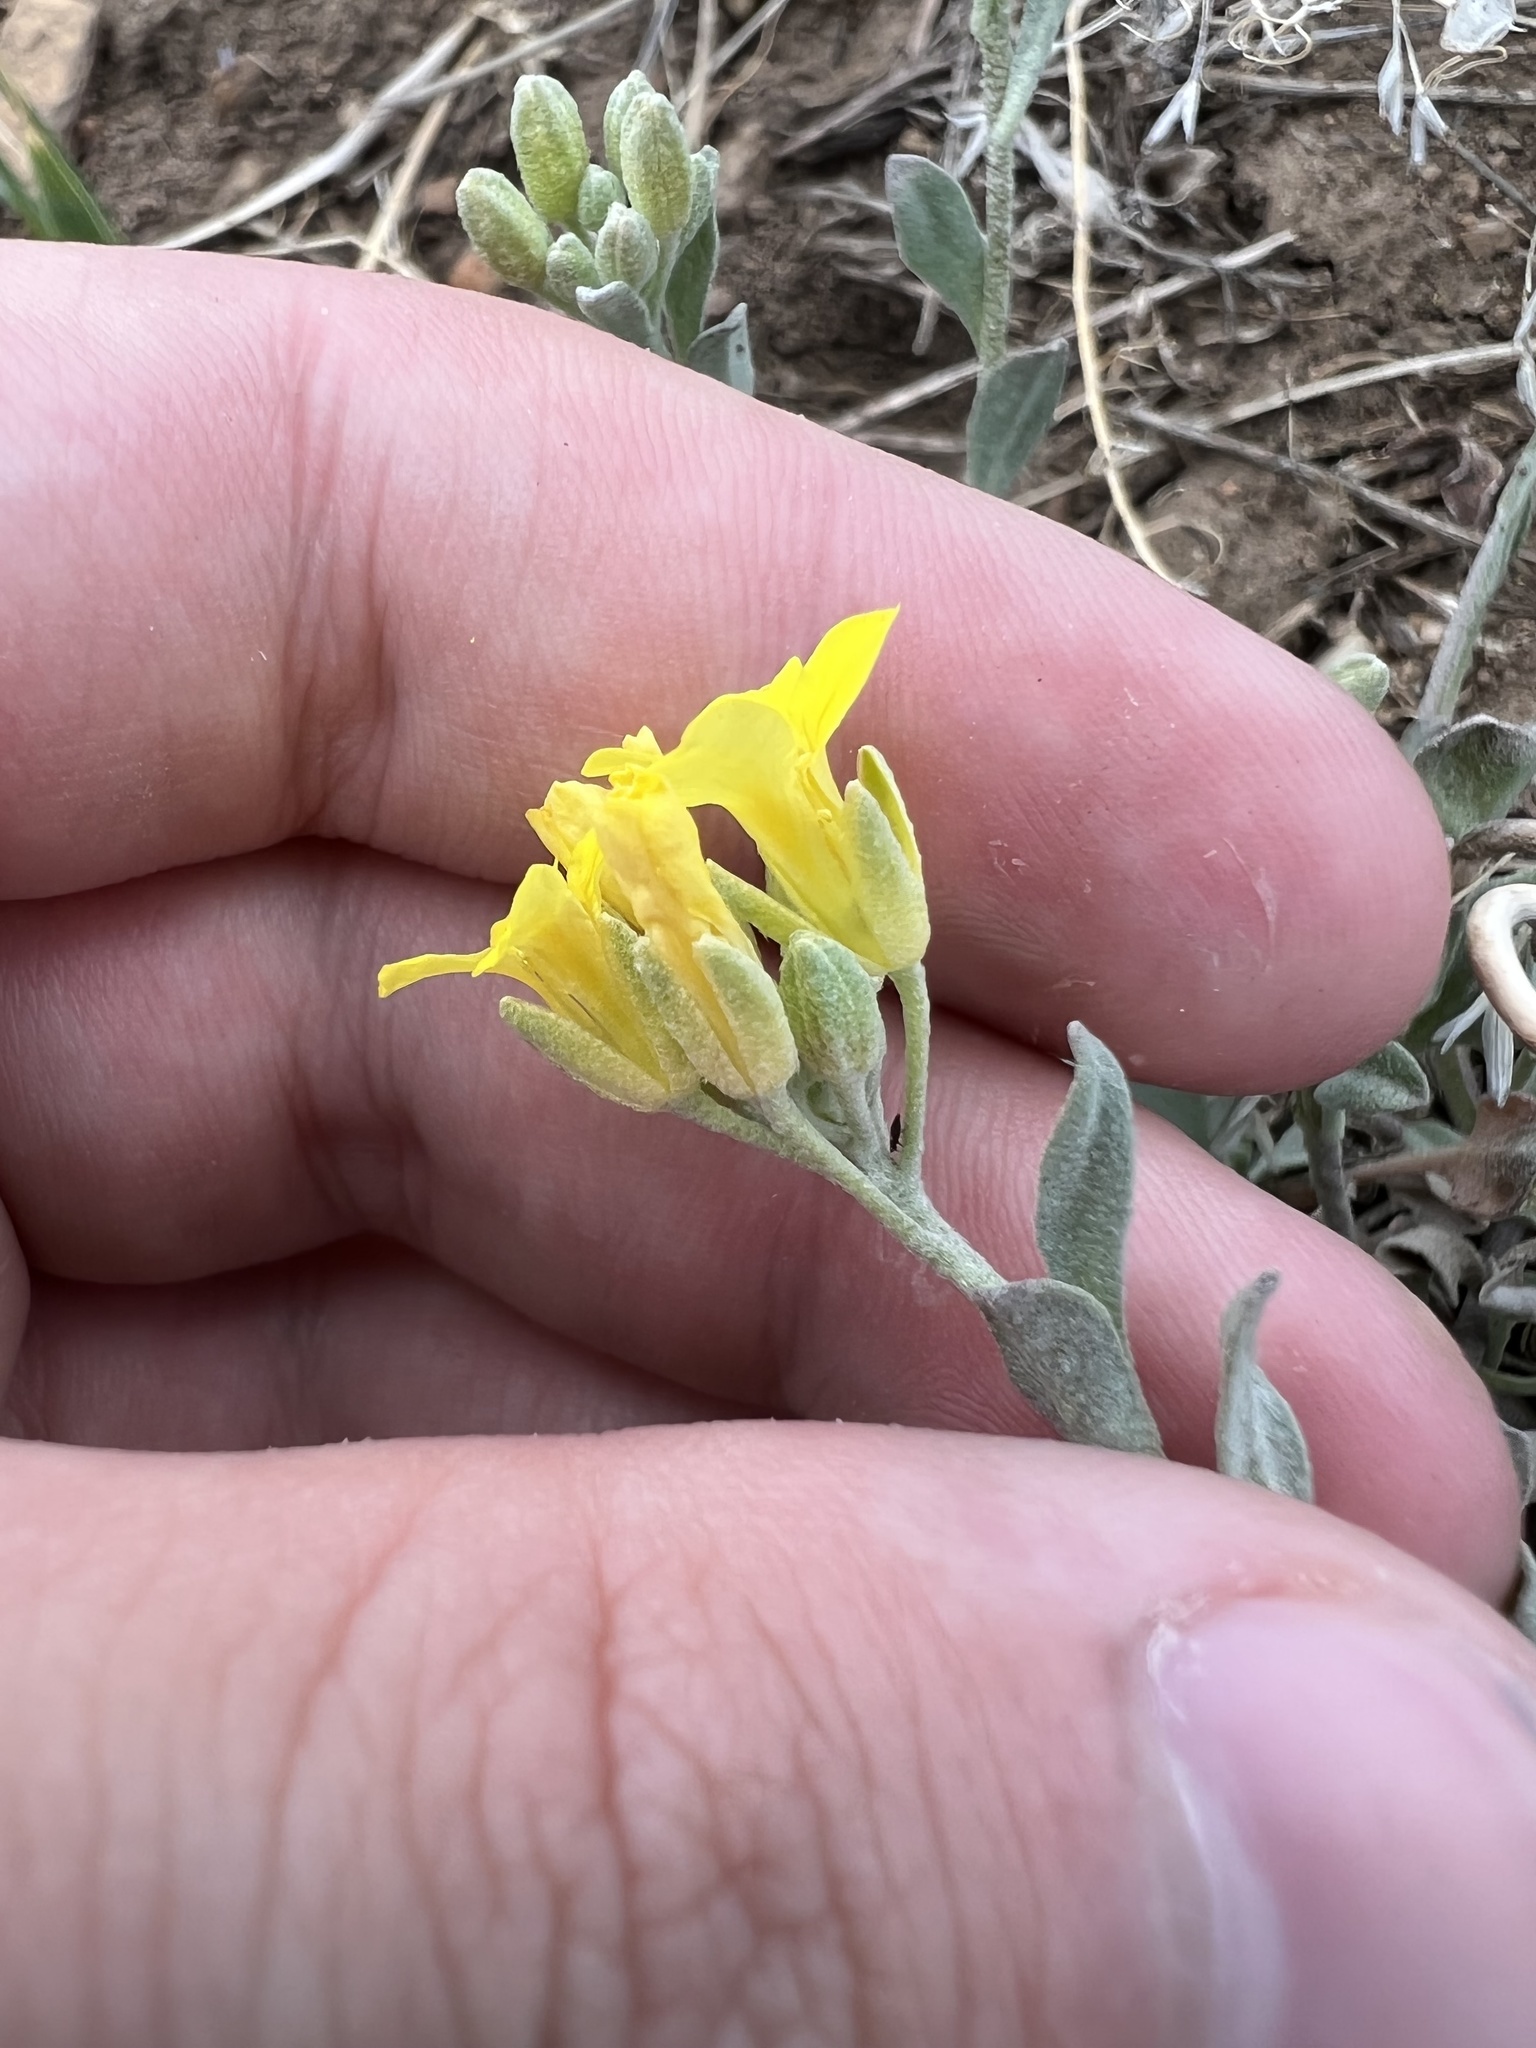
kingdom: Plantae
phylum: Tracheophyta
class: Magnoliopsida
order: Brassicales
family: Brassicaceae
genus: Physaria
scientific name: Physaria montana
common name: Mountain bladderpod
